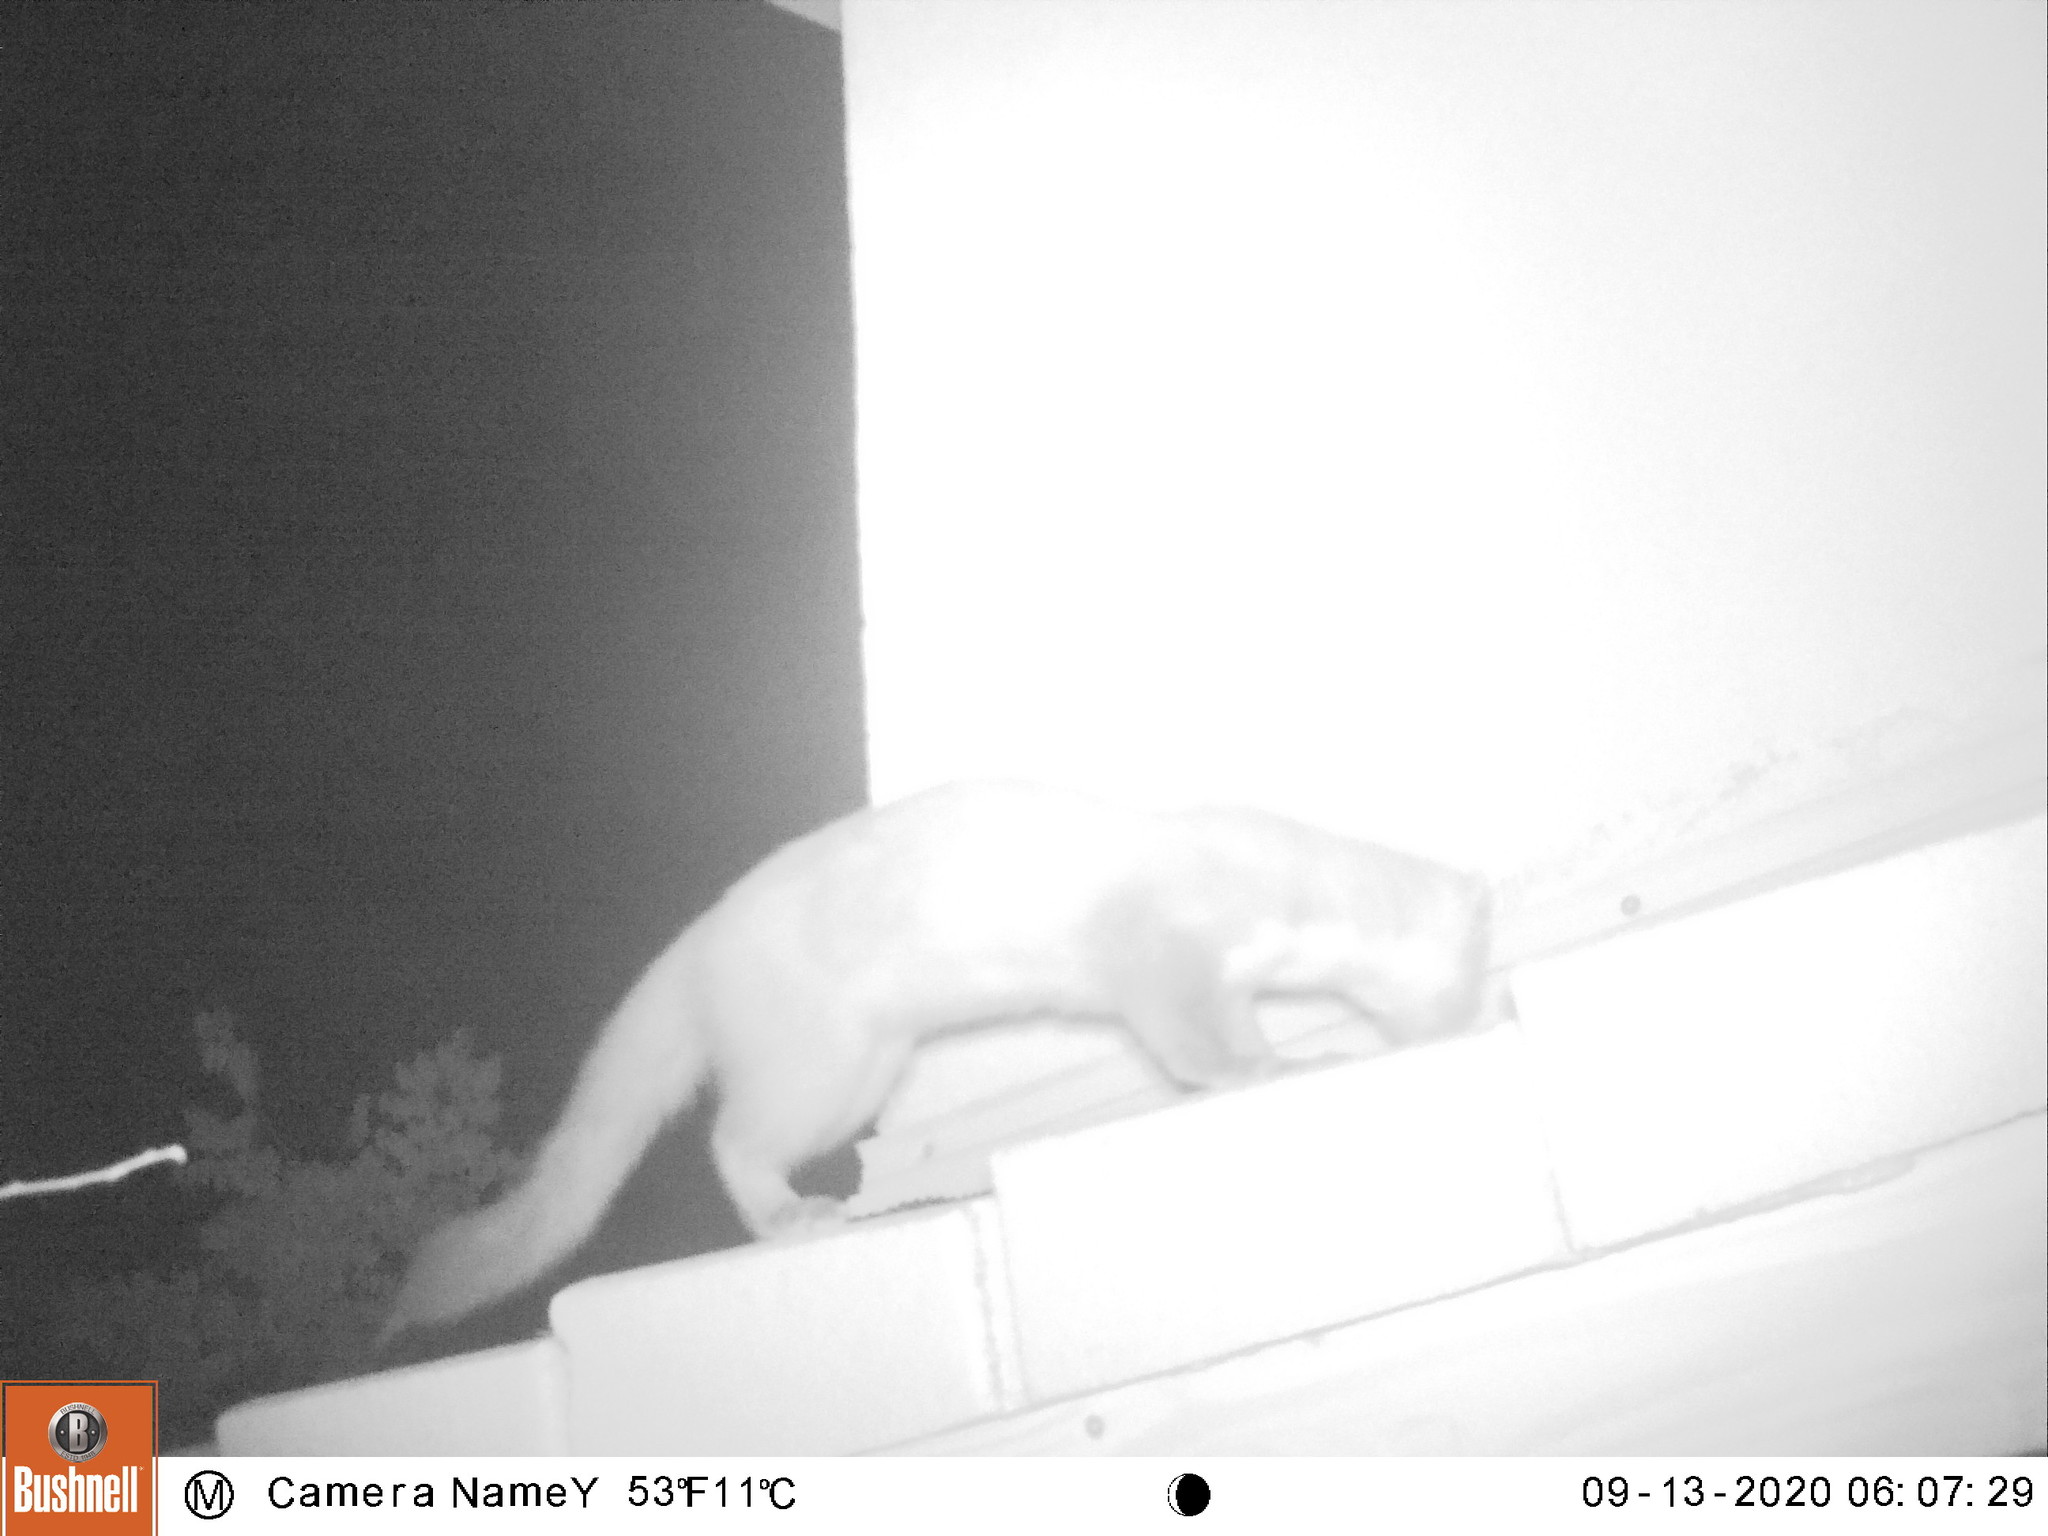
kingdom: Animalia
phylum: Chordata
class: Mammalia
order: Carnivora
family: Mustelidae
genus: Martes
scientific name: Martes foina
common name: Beech marten
